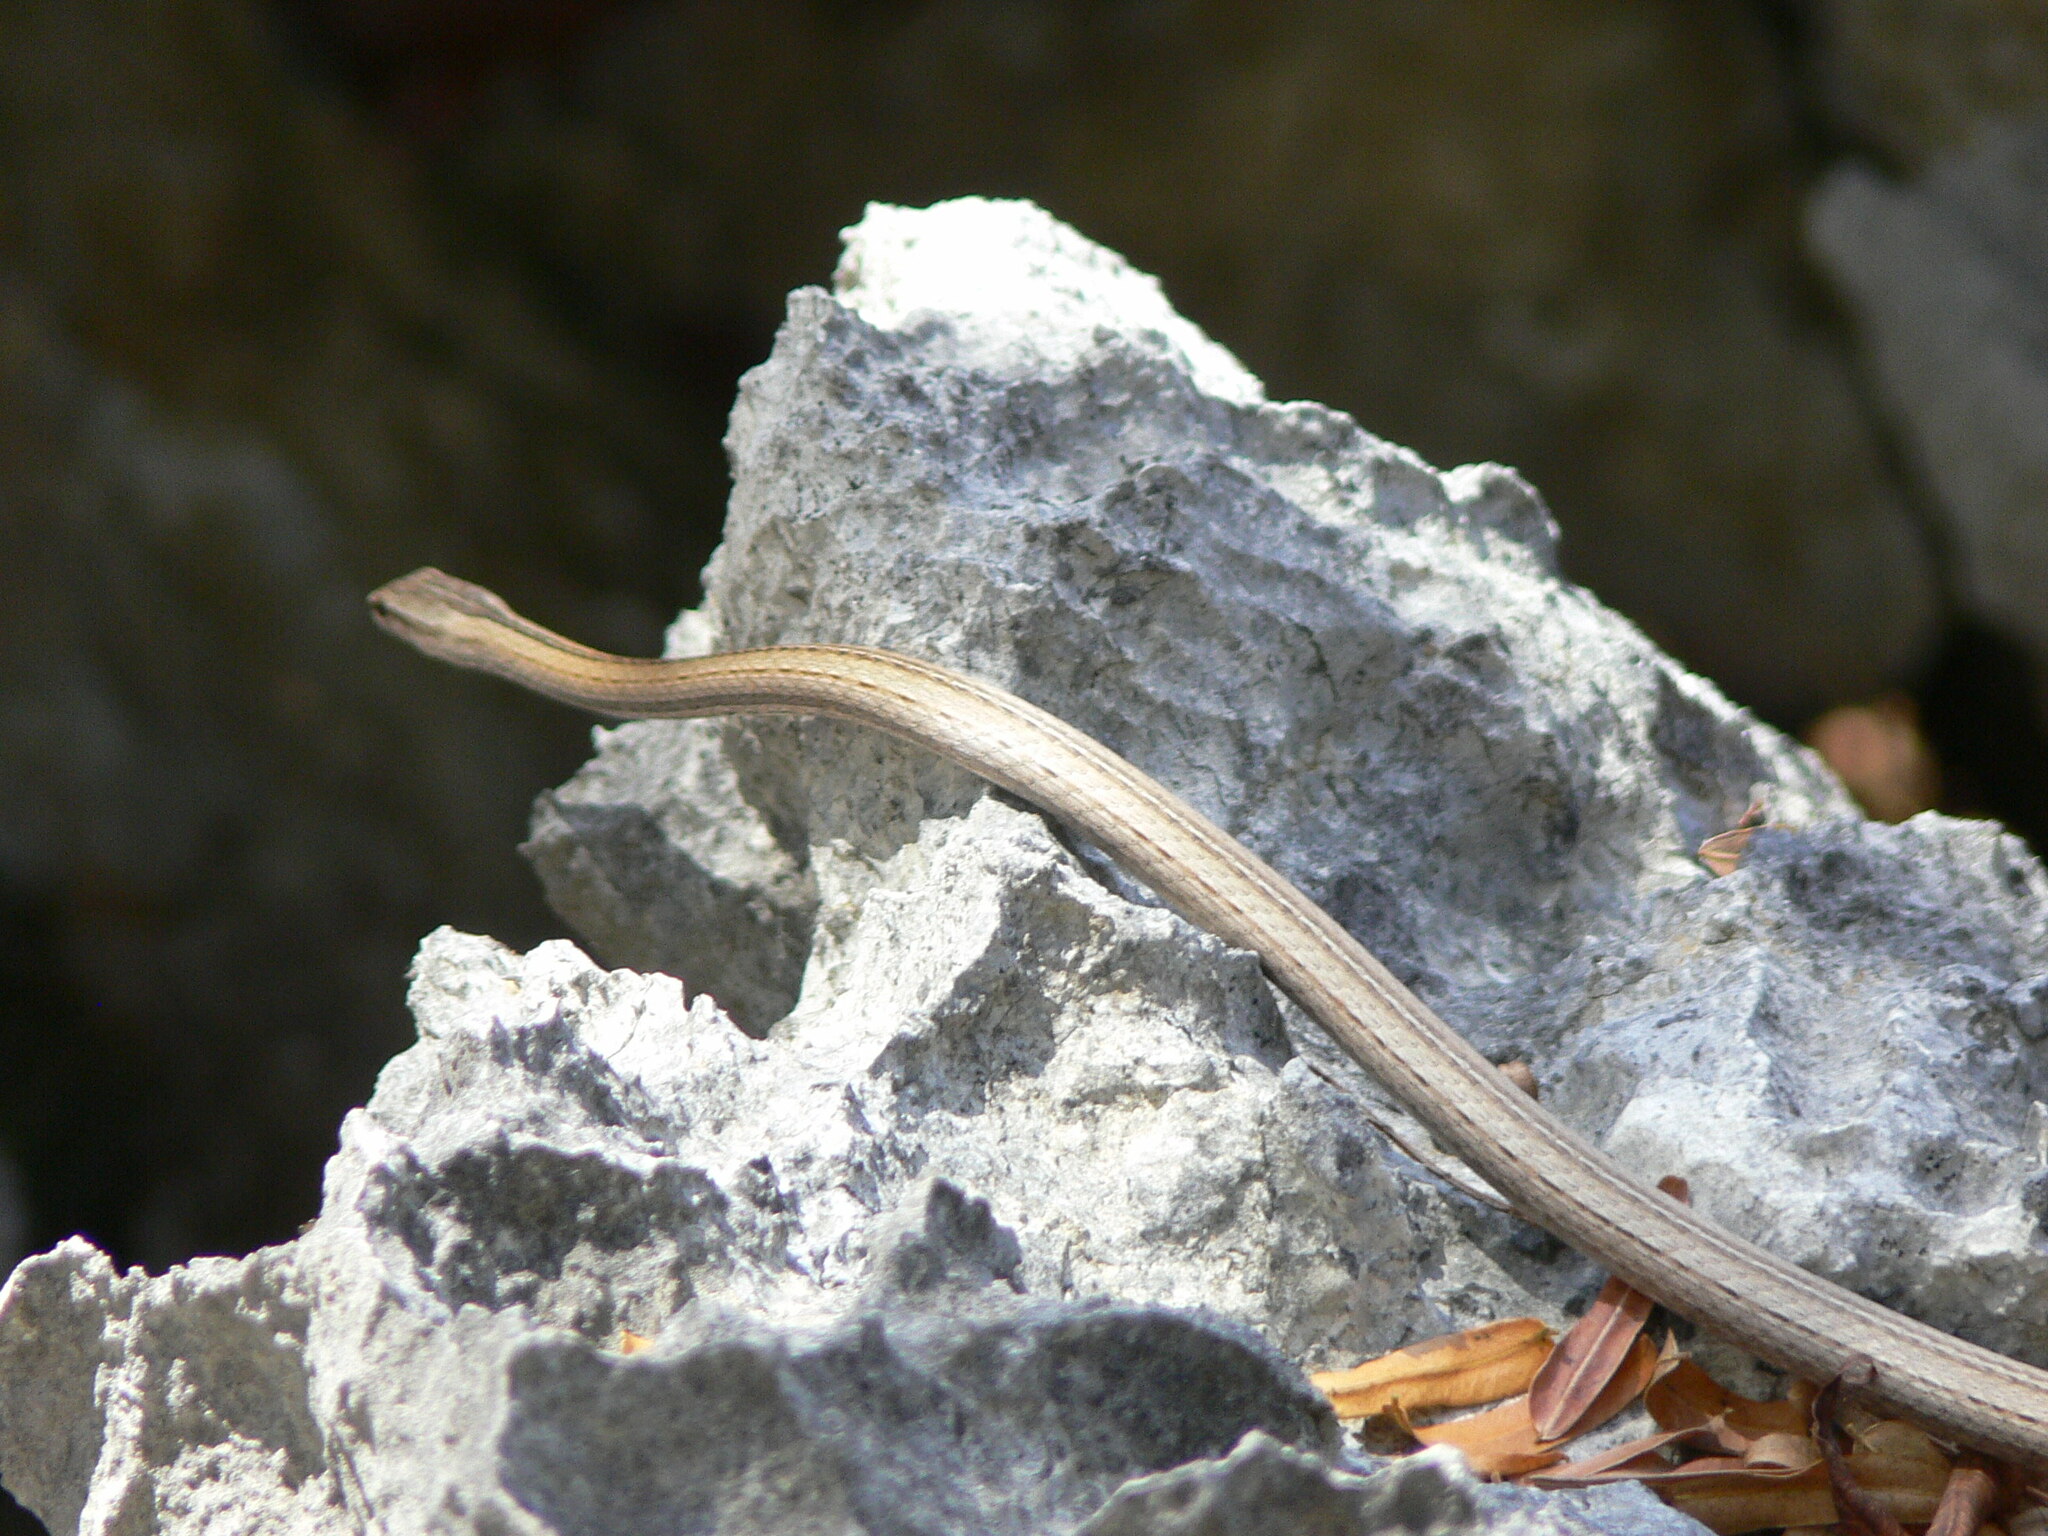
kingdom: Animalia
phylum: Chordata
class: Squamata
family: Psammophiidae
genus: Mimophis
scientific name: Mimophis occultus
